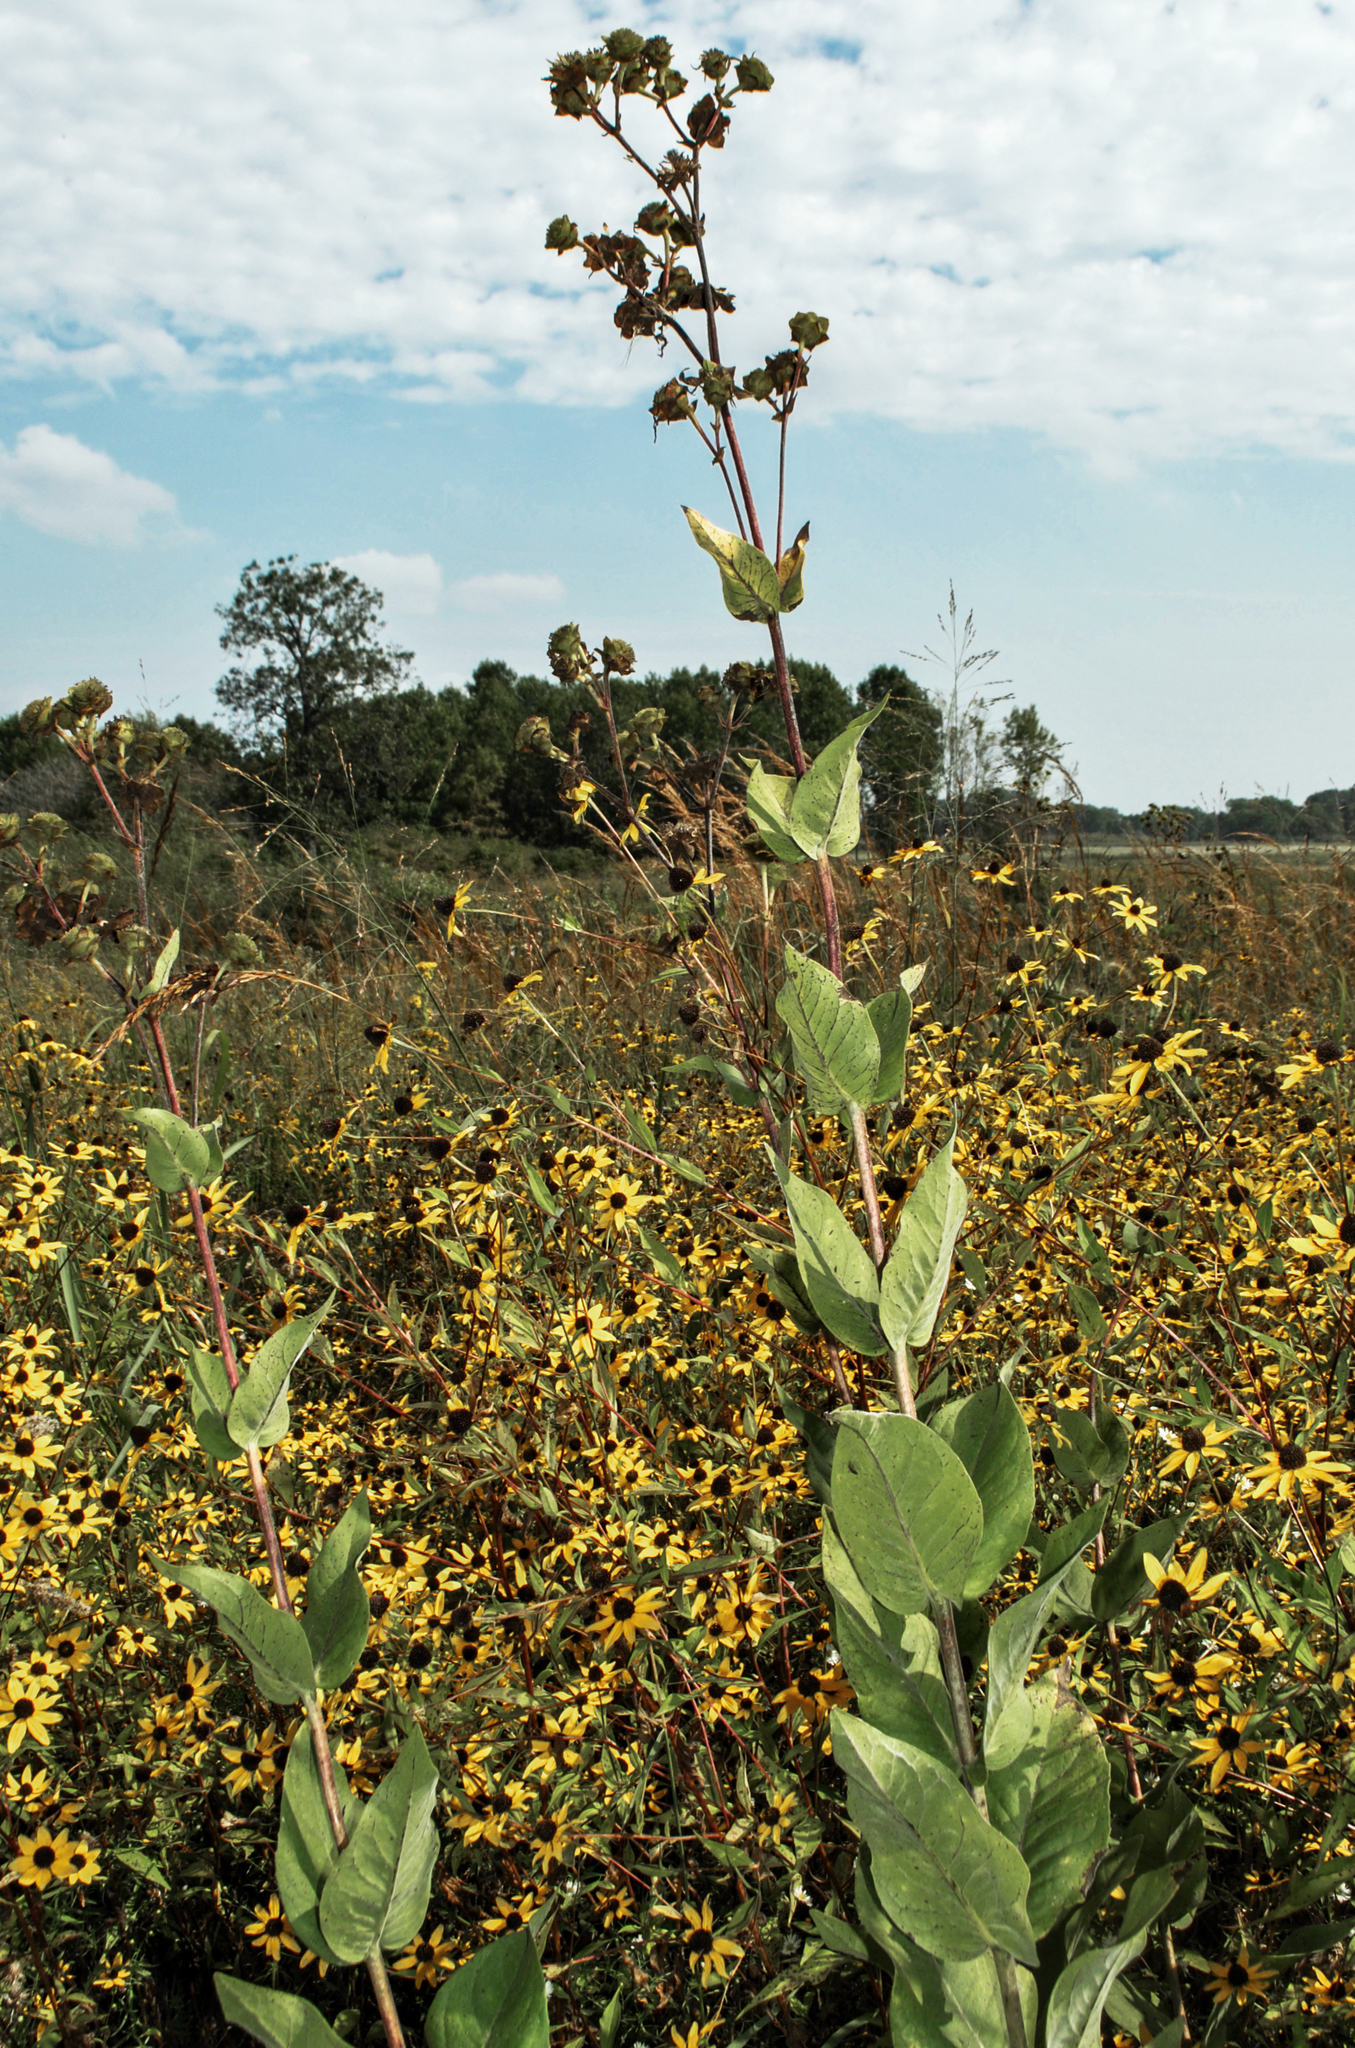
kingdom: Plantae
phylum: Tracheophyta
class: Magnoliopsida
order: Asterales
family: Asteraceae
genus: Silphium
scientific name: Silphium integrifolium
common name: Whole-leaf rosinweed
